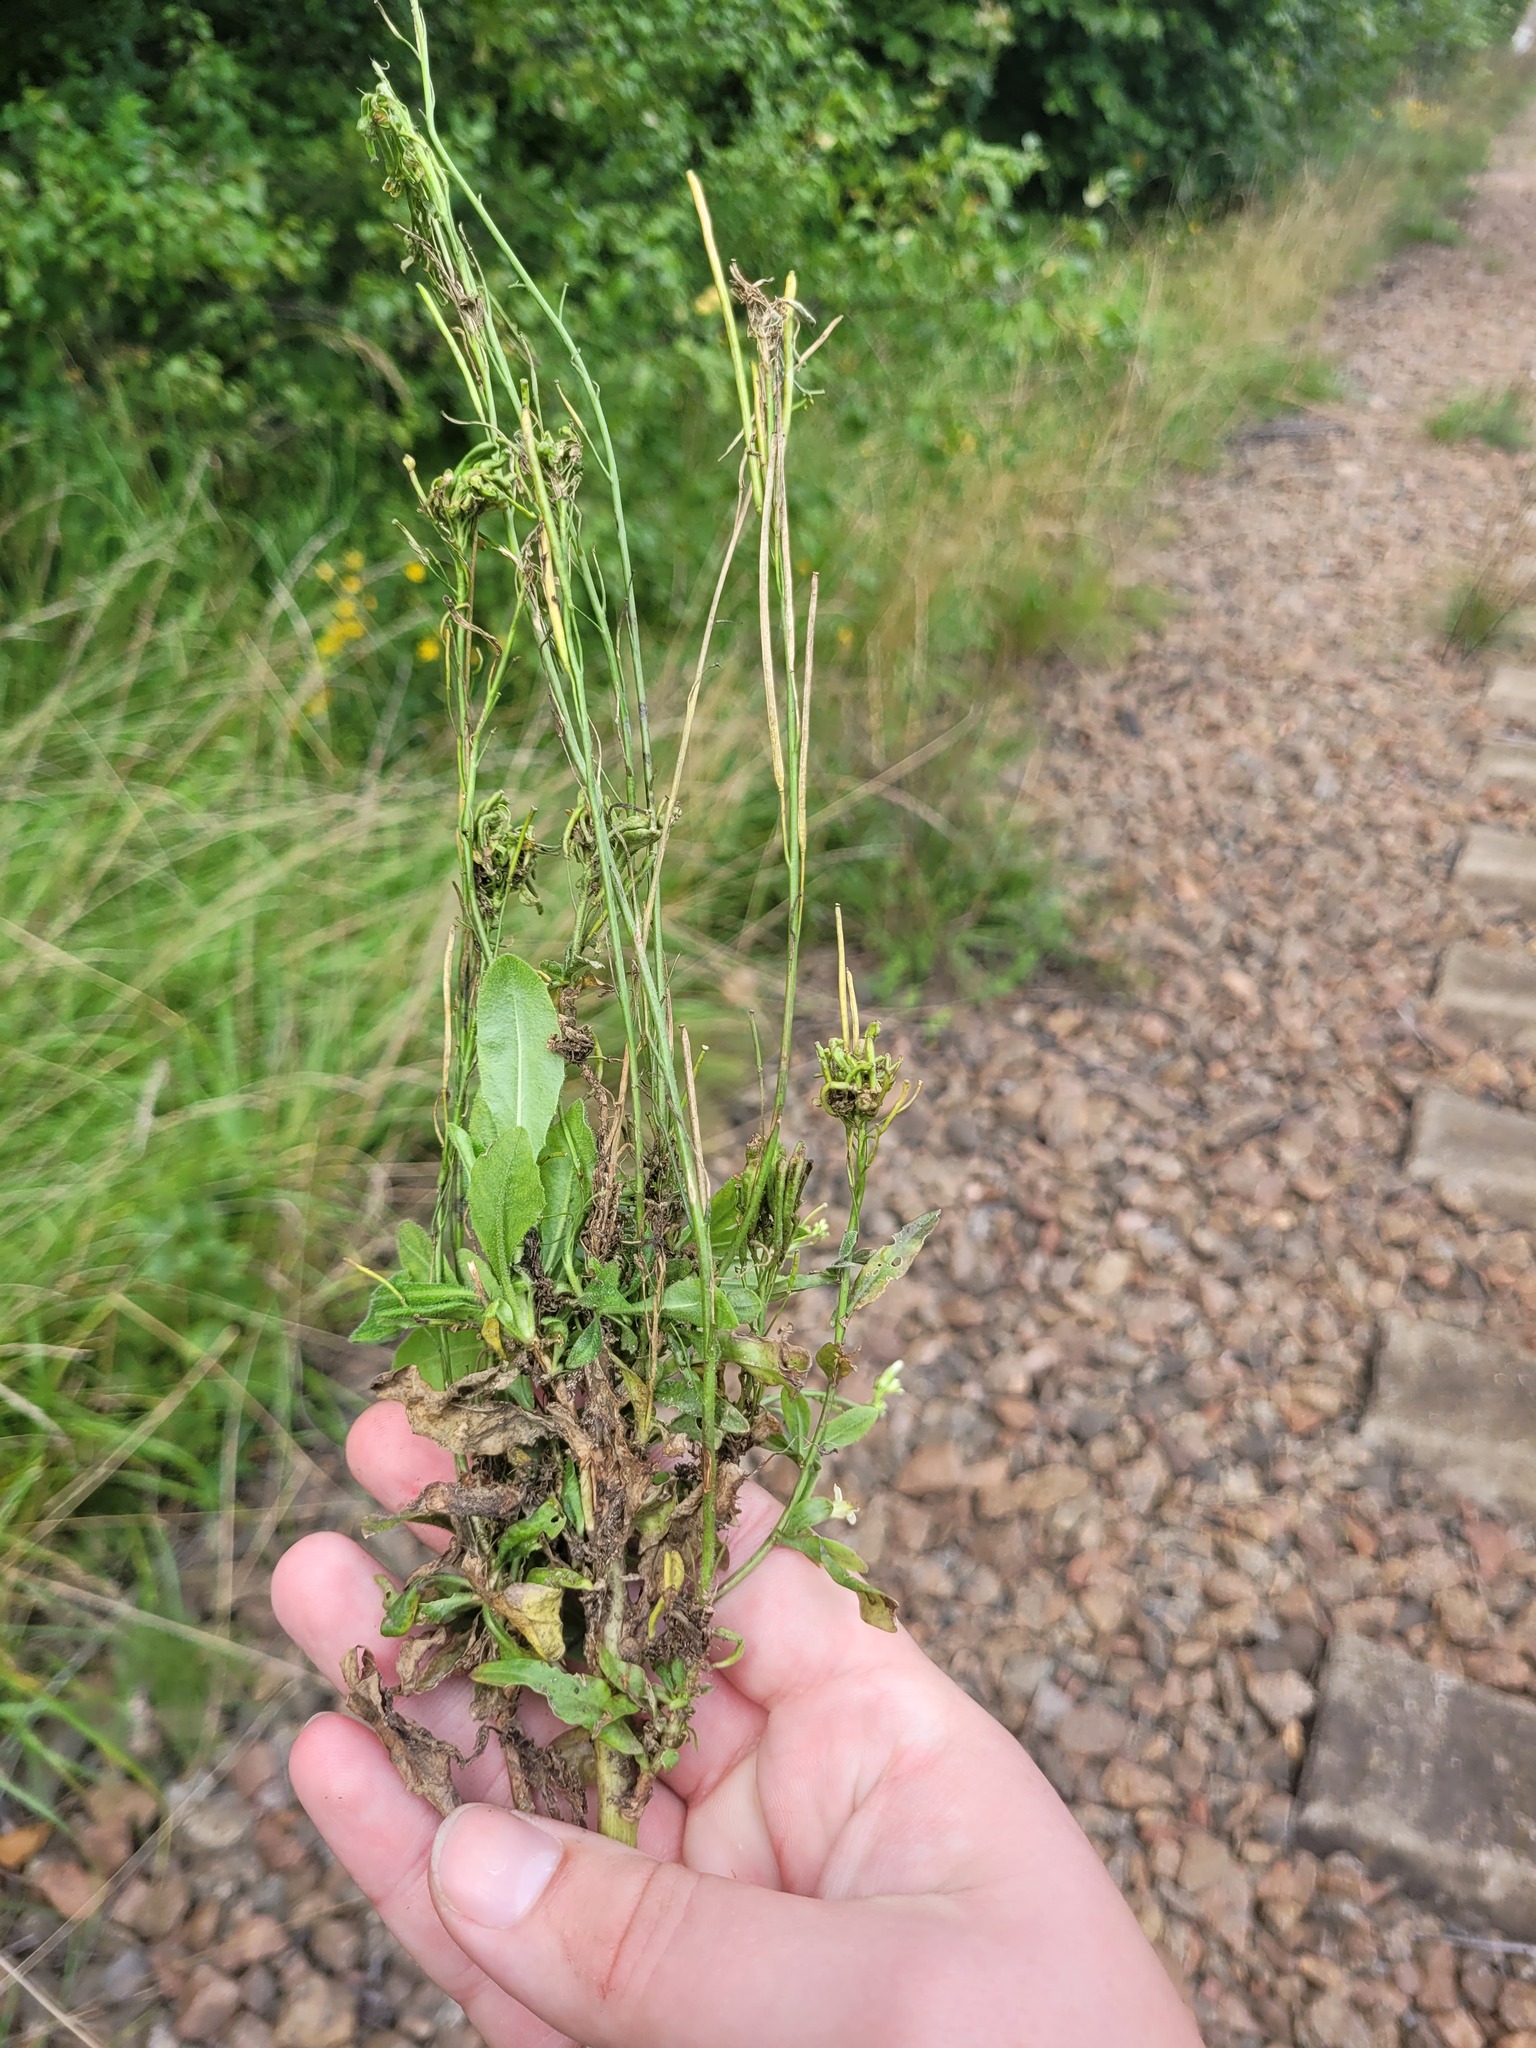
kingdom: Plantae
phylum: Tracheophyta
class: Magnoliopsida
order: Brassicales
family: Brassicaceae
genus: Turritis
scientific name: Turritis glabra
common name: Tower rockcress
